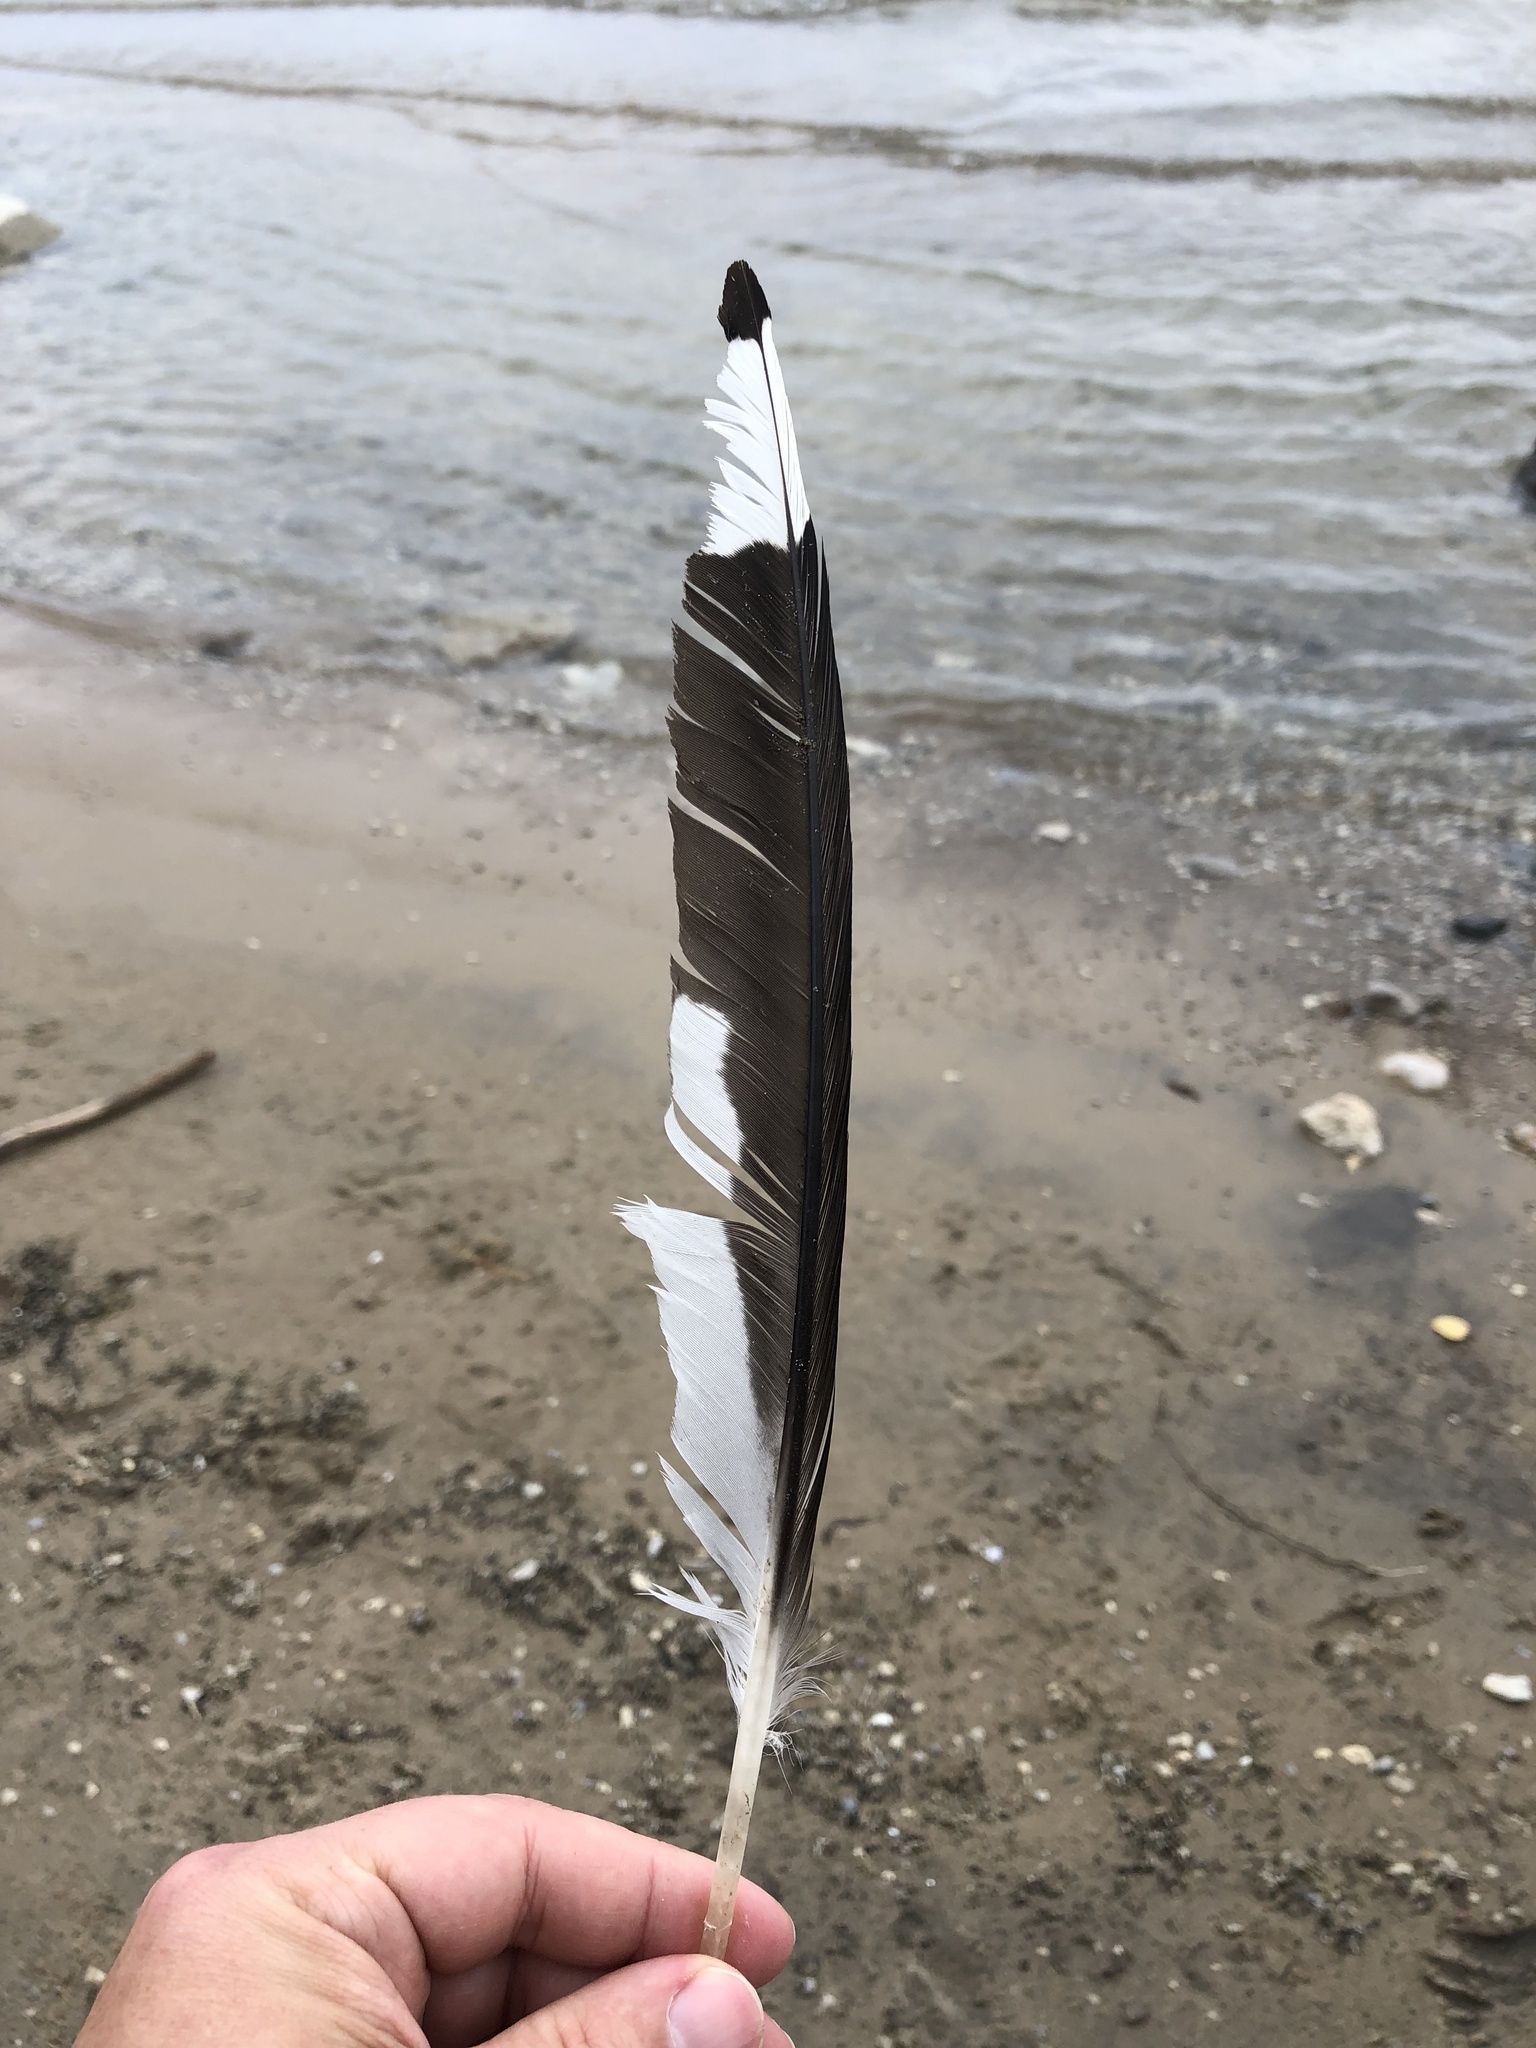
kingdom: Animalia
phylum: Chordata
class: Aves
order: Charadriiformes
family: Laridae
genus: Larus
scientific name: Larus delawarensis
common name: Ring-billed gull
